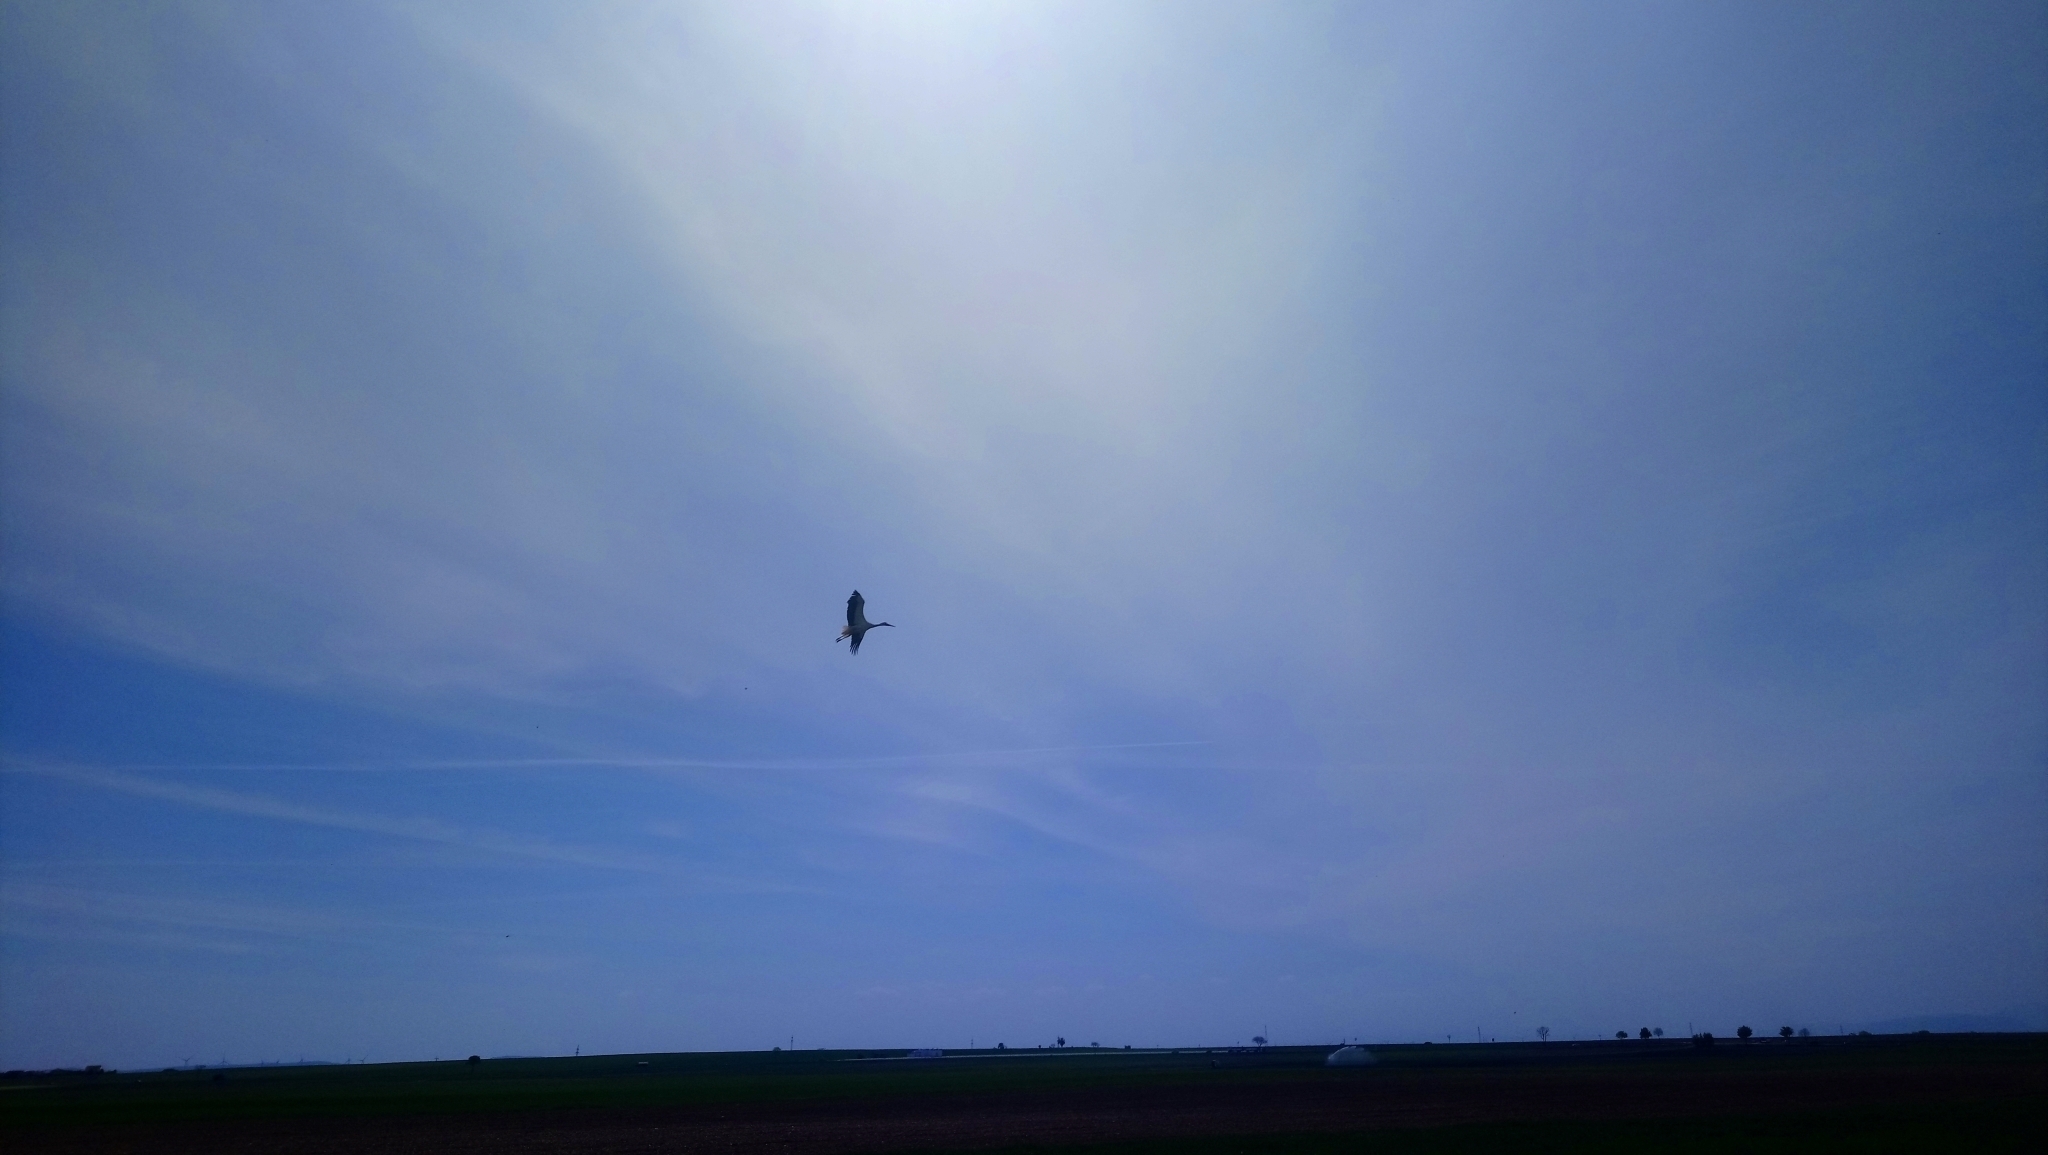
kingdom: Animalia
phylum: Chordata
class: Aves
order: Ciconiiformes
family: Ciconiidae
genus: Ciconia
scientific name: Ciconia ciconia
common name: White stork
